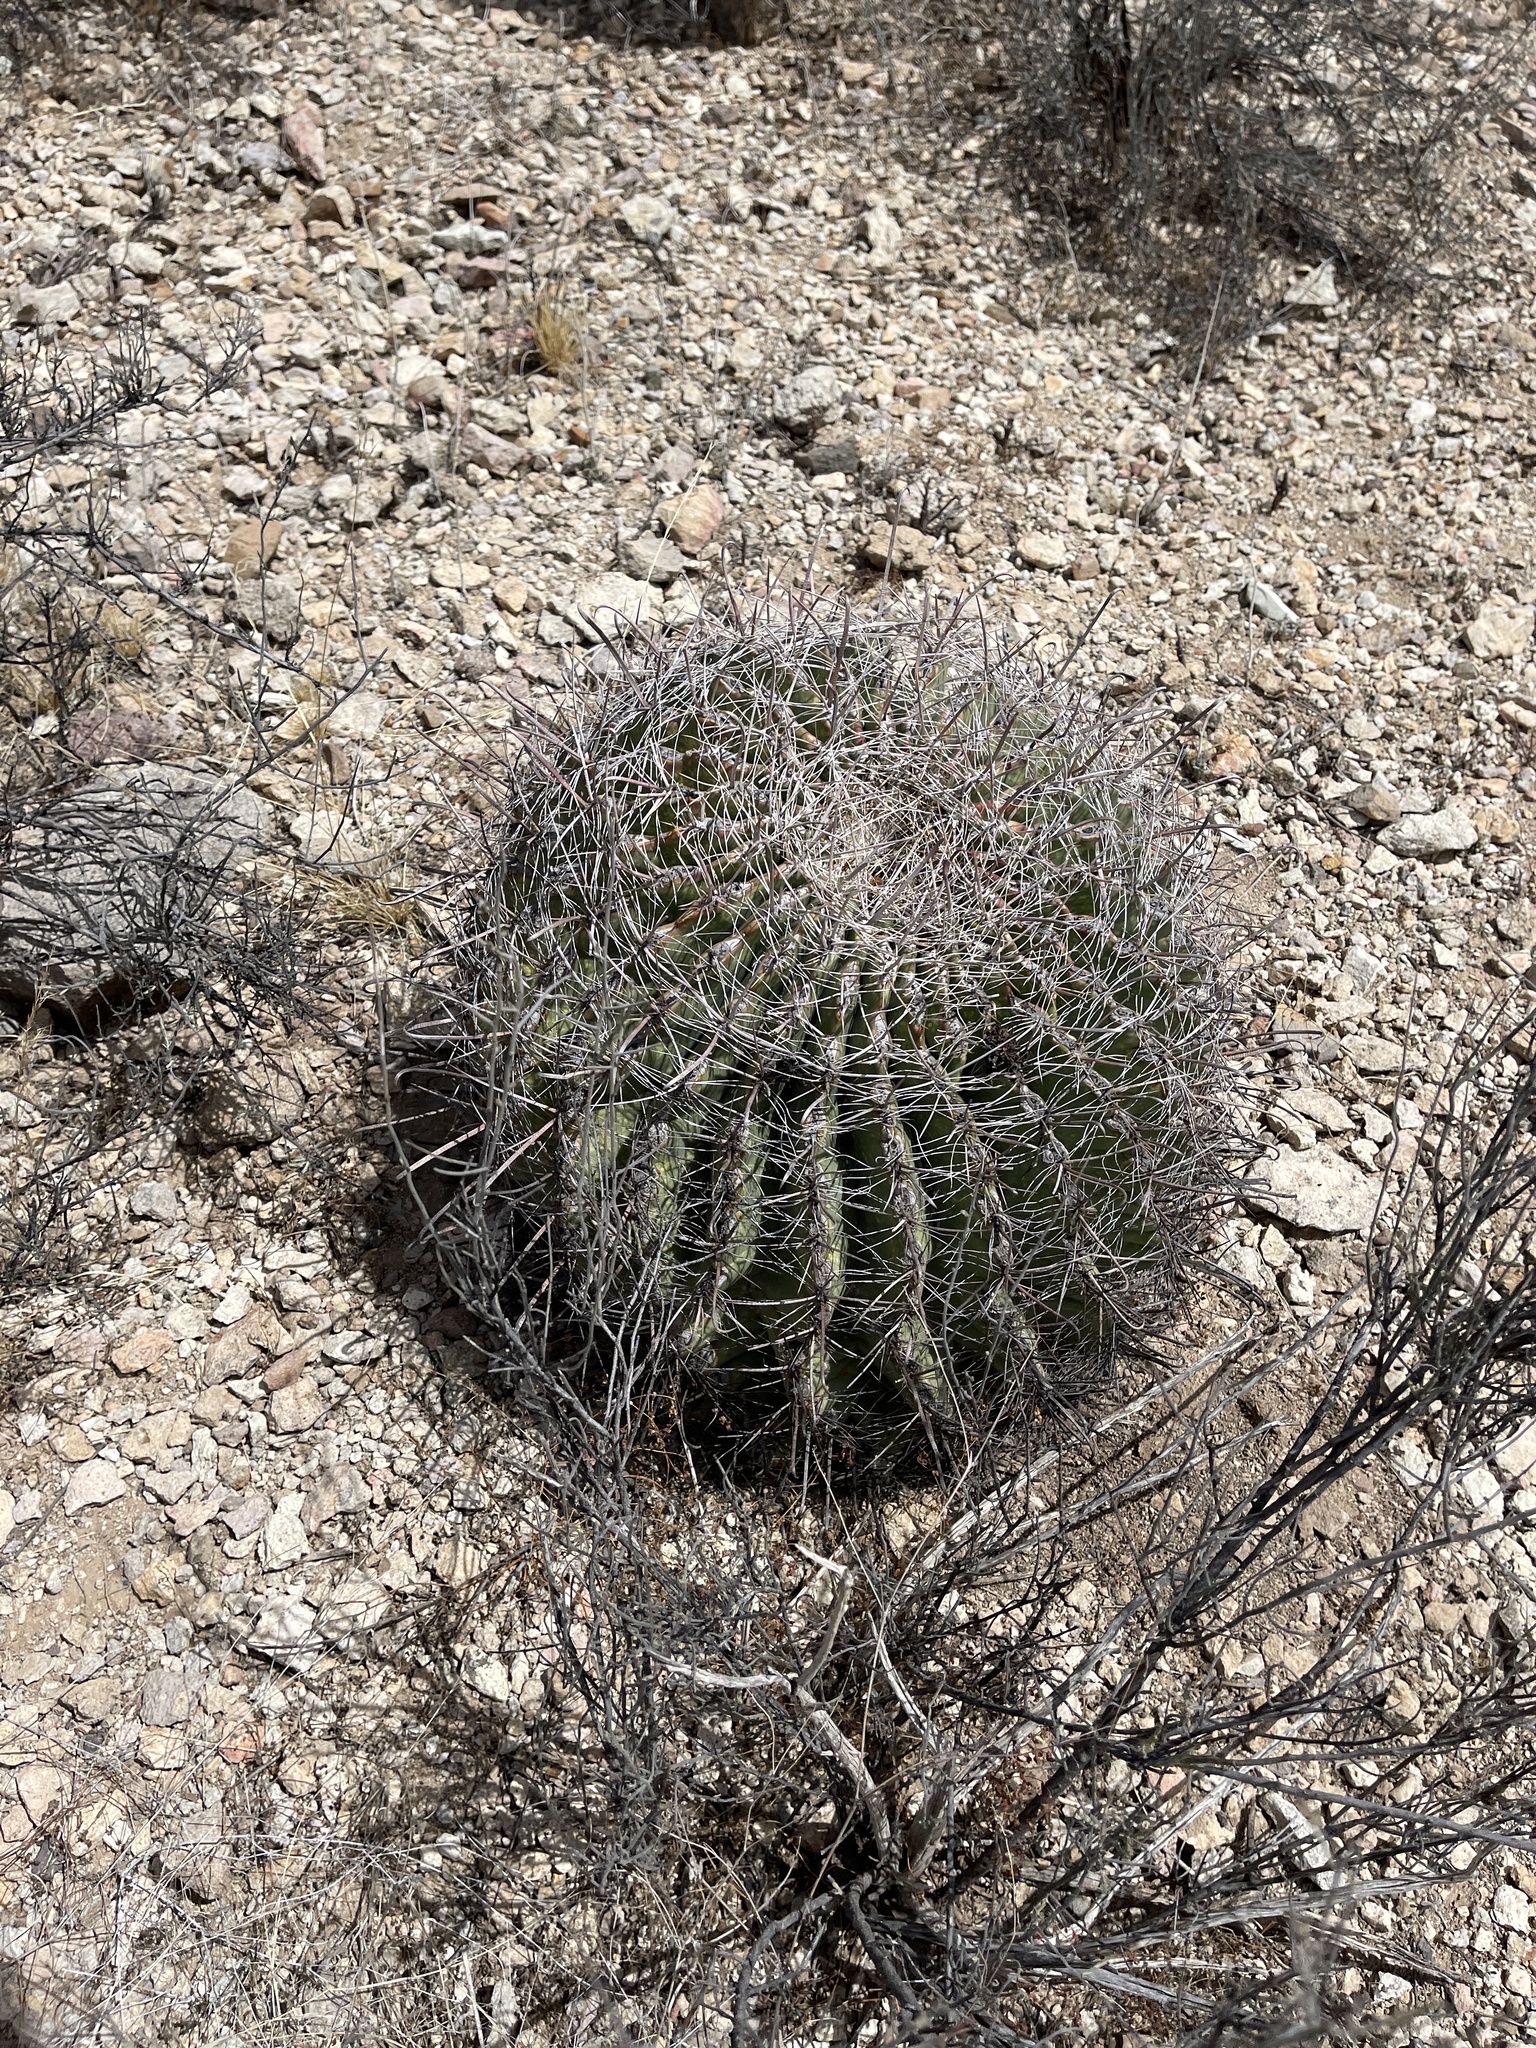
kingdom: Plantae
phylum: Tracheophyta
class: Magnoliopsida
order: Caryophyllales
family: Cactaceae
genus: Ferocactus
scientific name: Ferocactus wislizeni
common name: Candy barrel cactus
